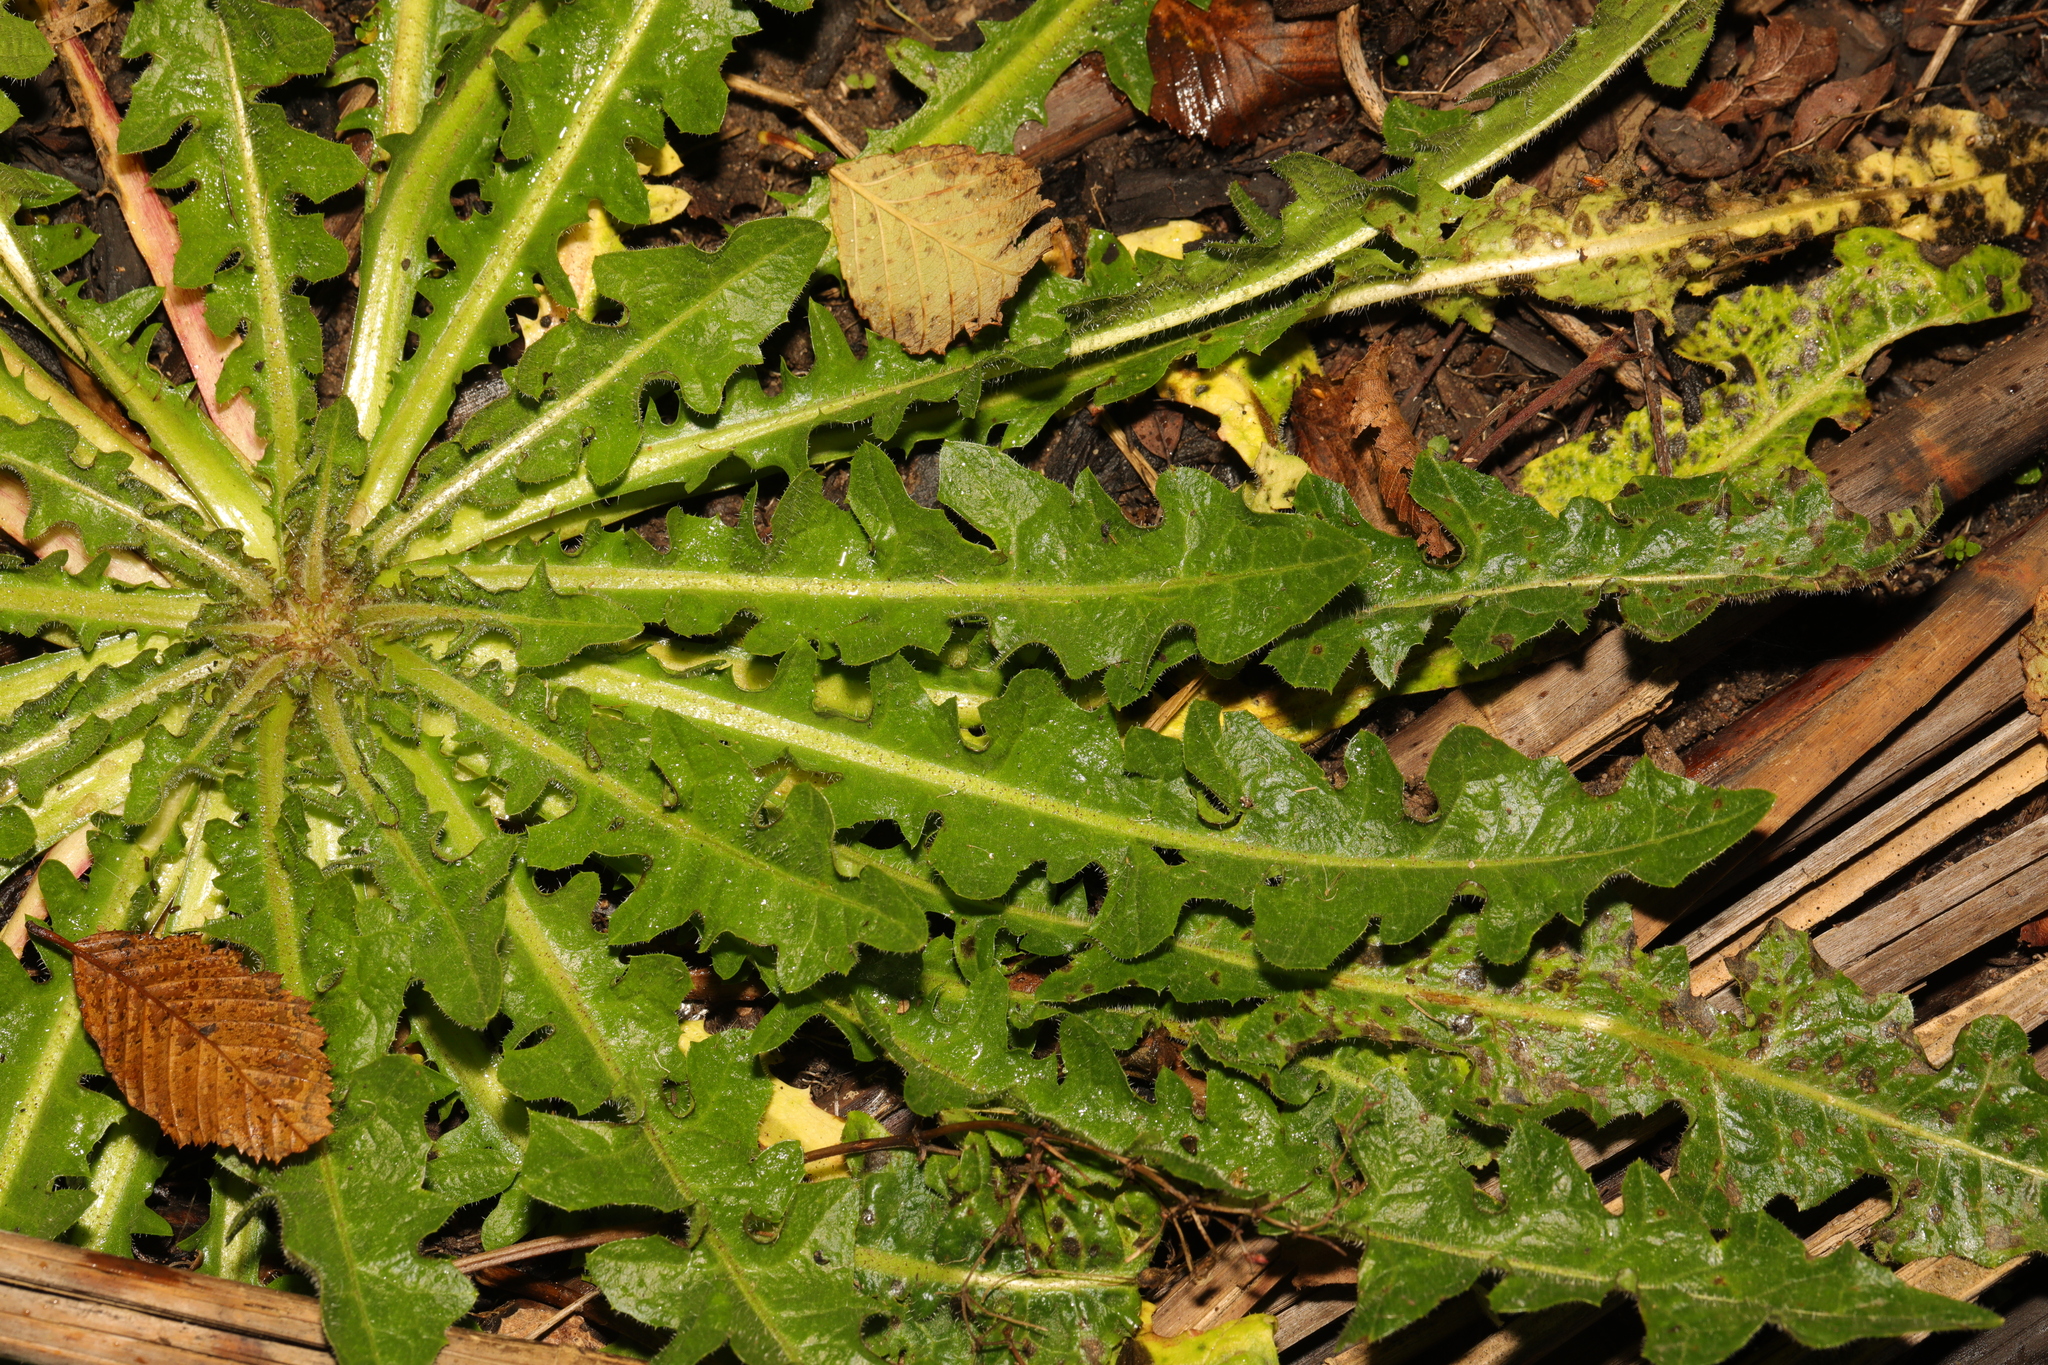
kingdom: Plantae
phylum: Tracheophyta
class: Magnoliopsida
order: Asterales
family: Asteraceae
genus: Hypochaeris
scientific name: Hypochaeris radicata
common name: Flatweed
